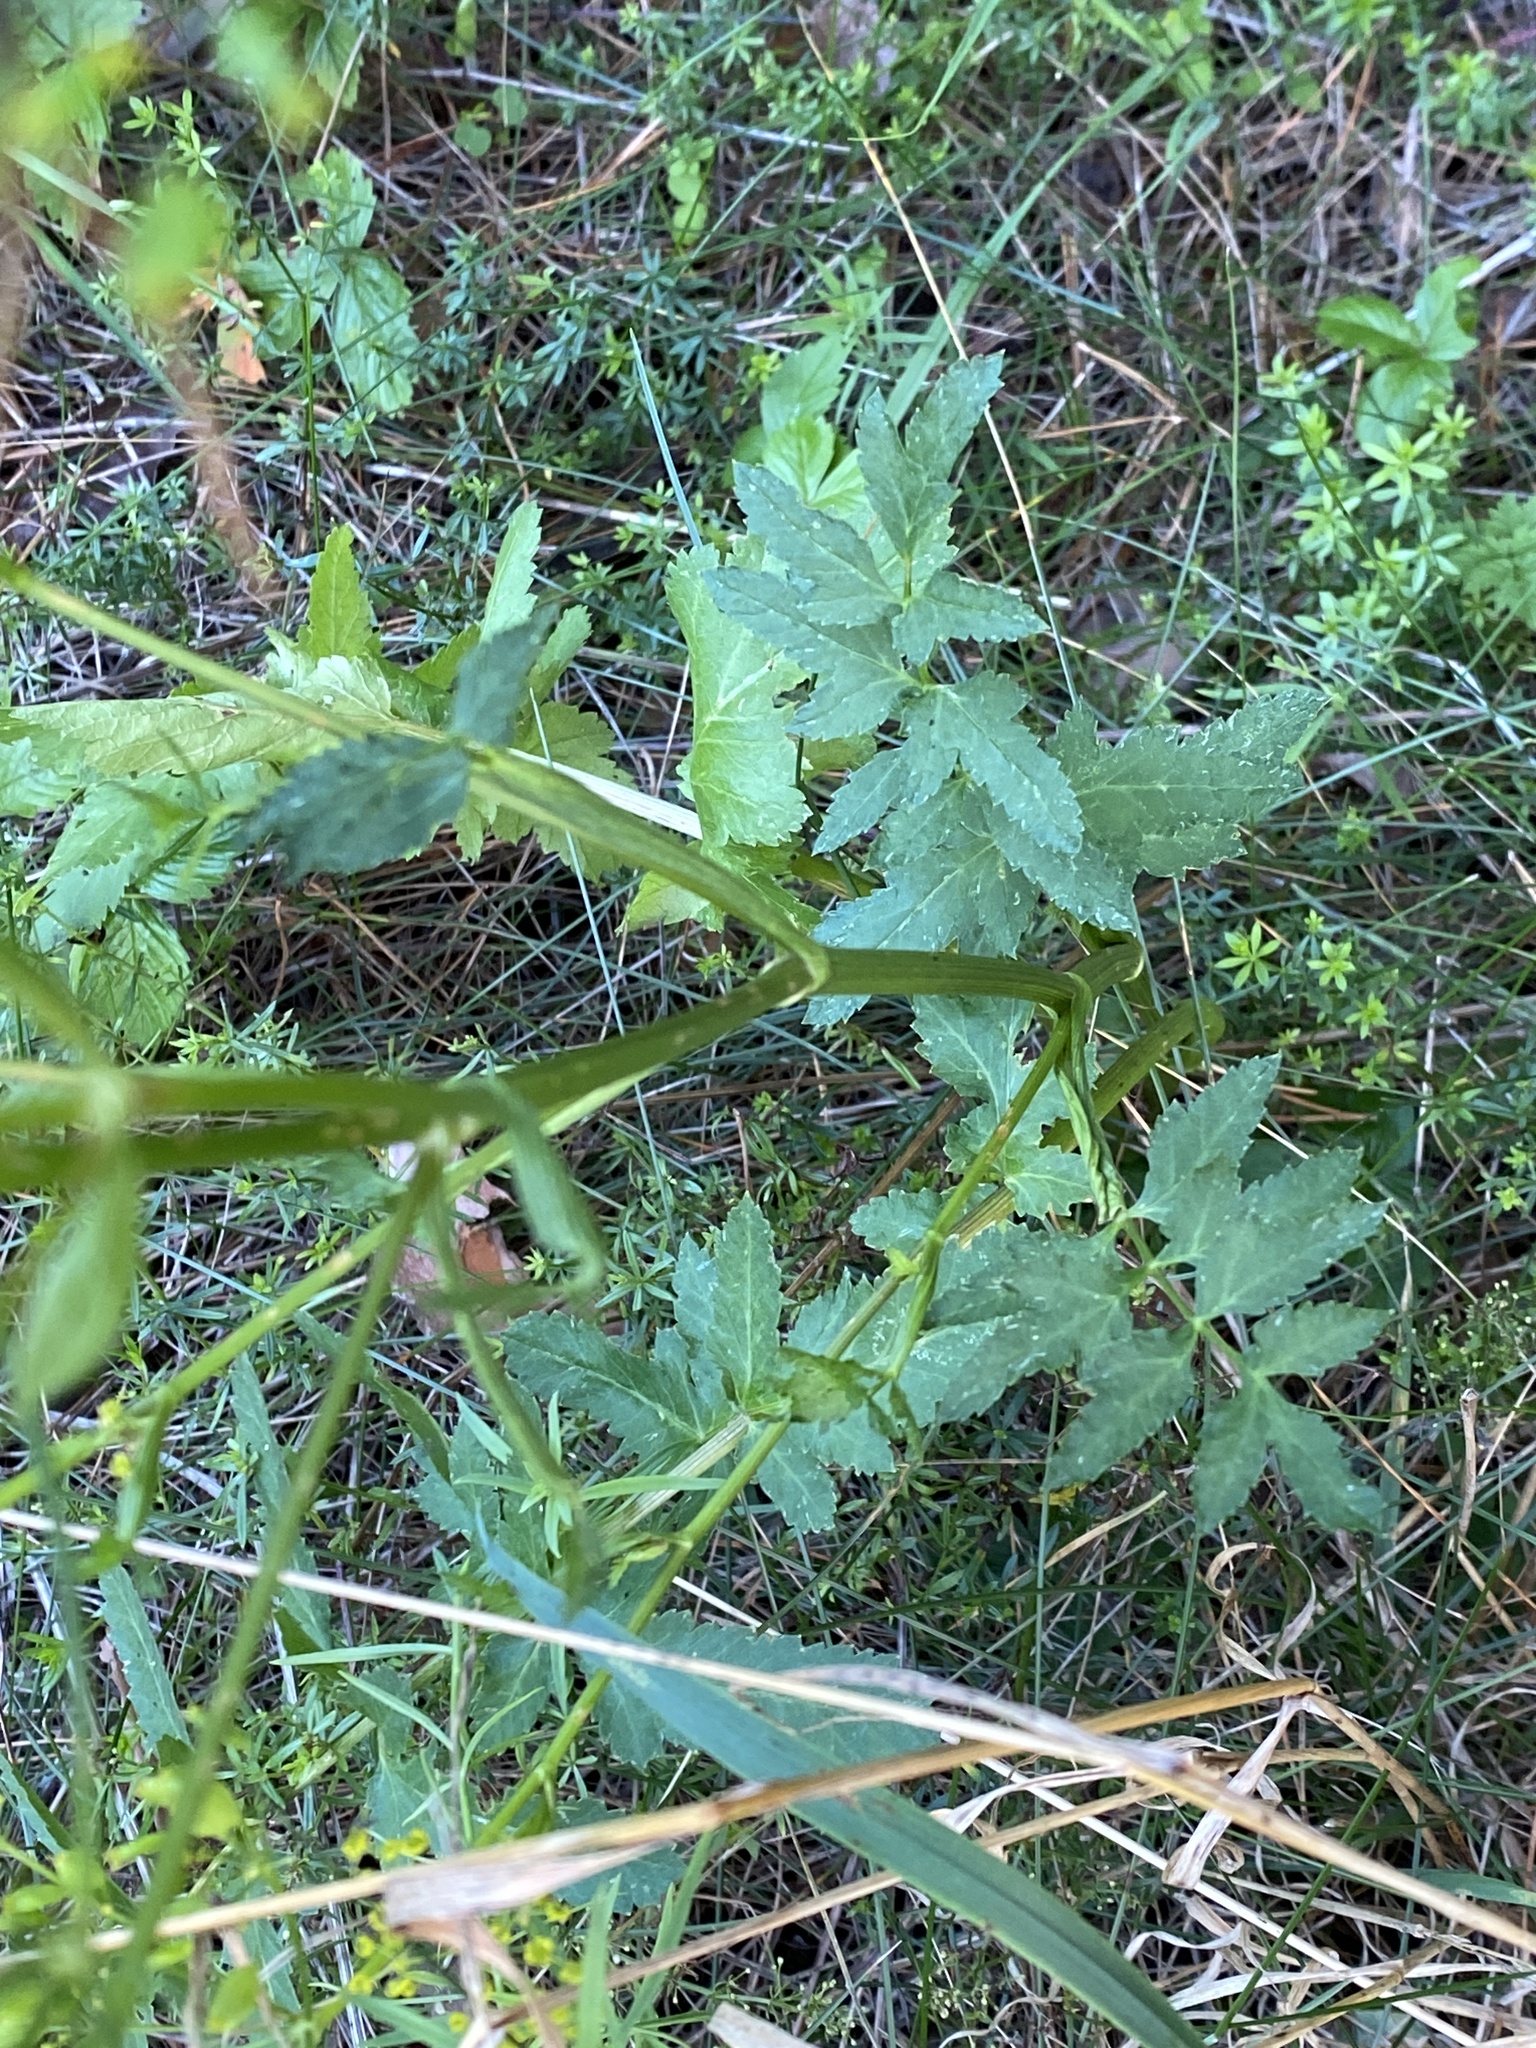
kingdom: Plantae
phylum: Tracheophyta
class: Magnoliopsida
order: Apiales
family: Apiaceae
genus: Pastinaca
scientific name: Pastinaca sativa
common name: Wild parsnip
